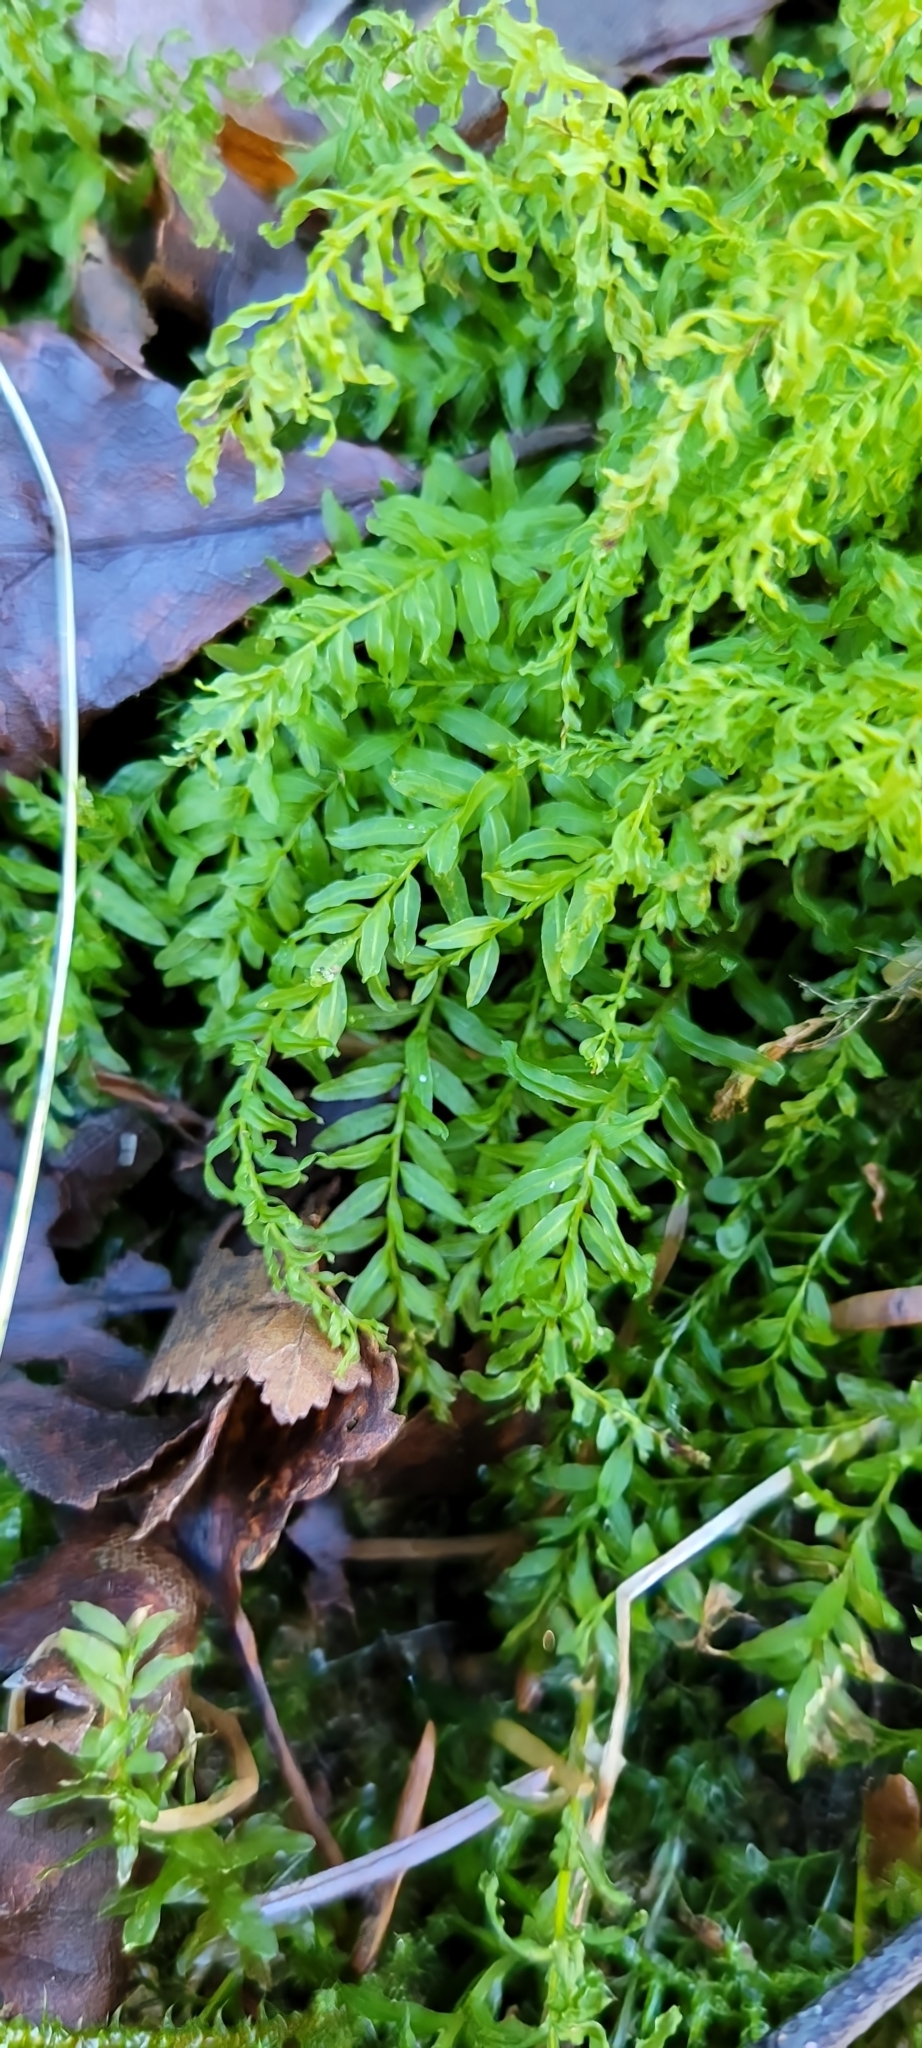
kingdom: Plantae
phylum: Bryophyta
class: Bryopsida
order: Bryales
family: Mniaceae
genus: Plagiomnium
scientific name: Plagiomnium undulatum
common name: Hart's-tongue thyme-moss
